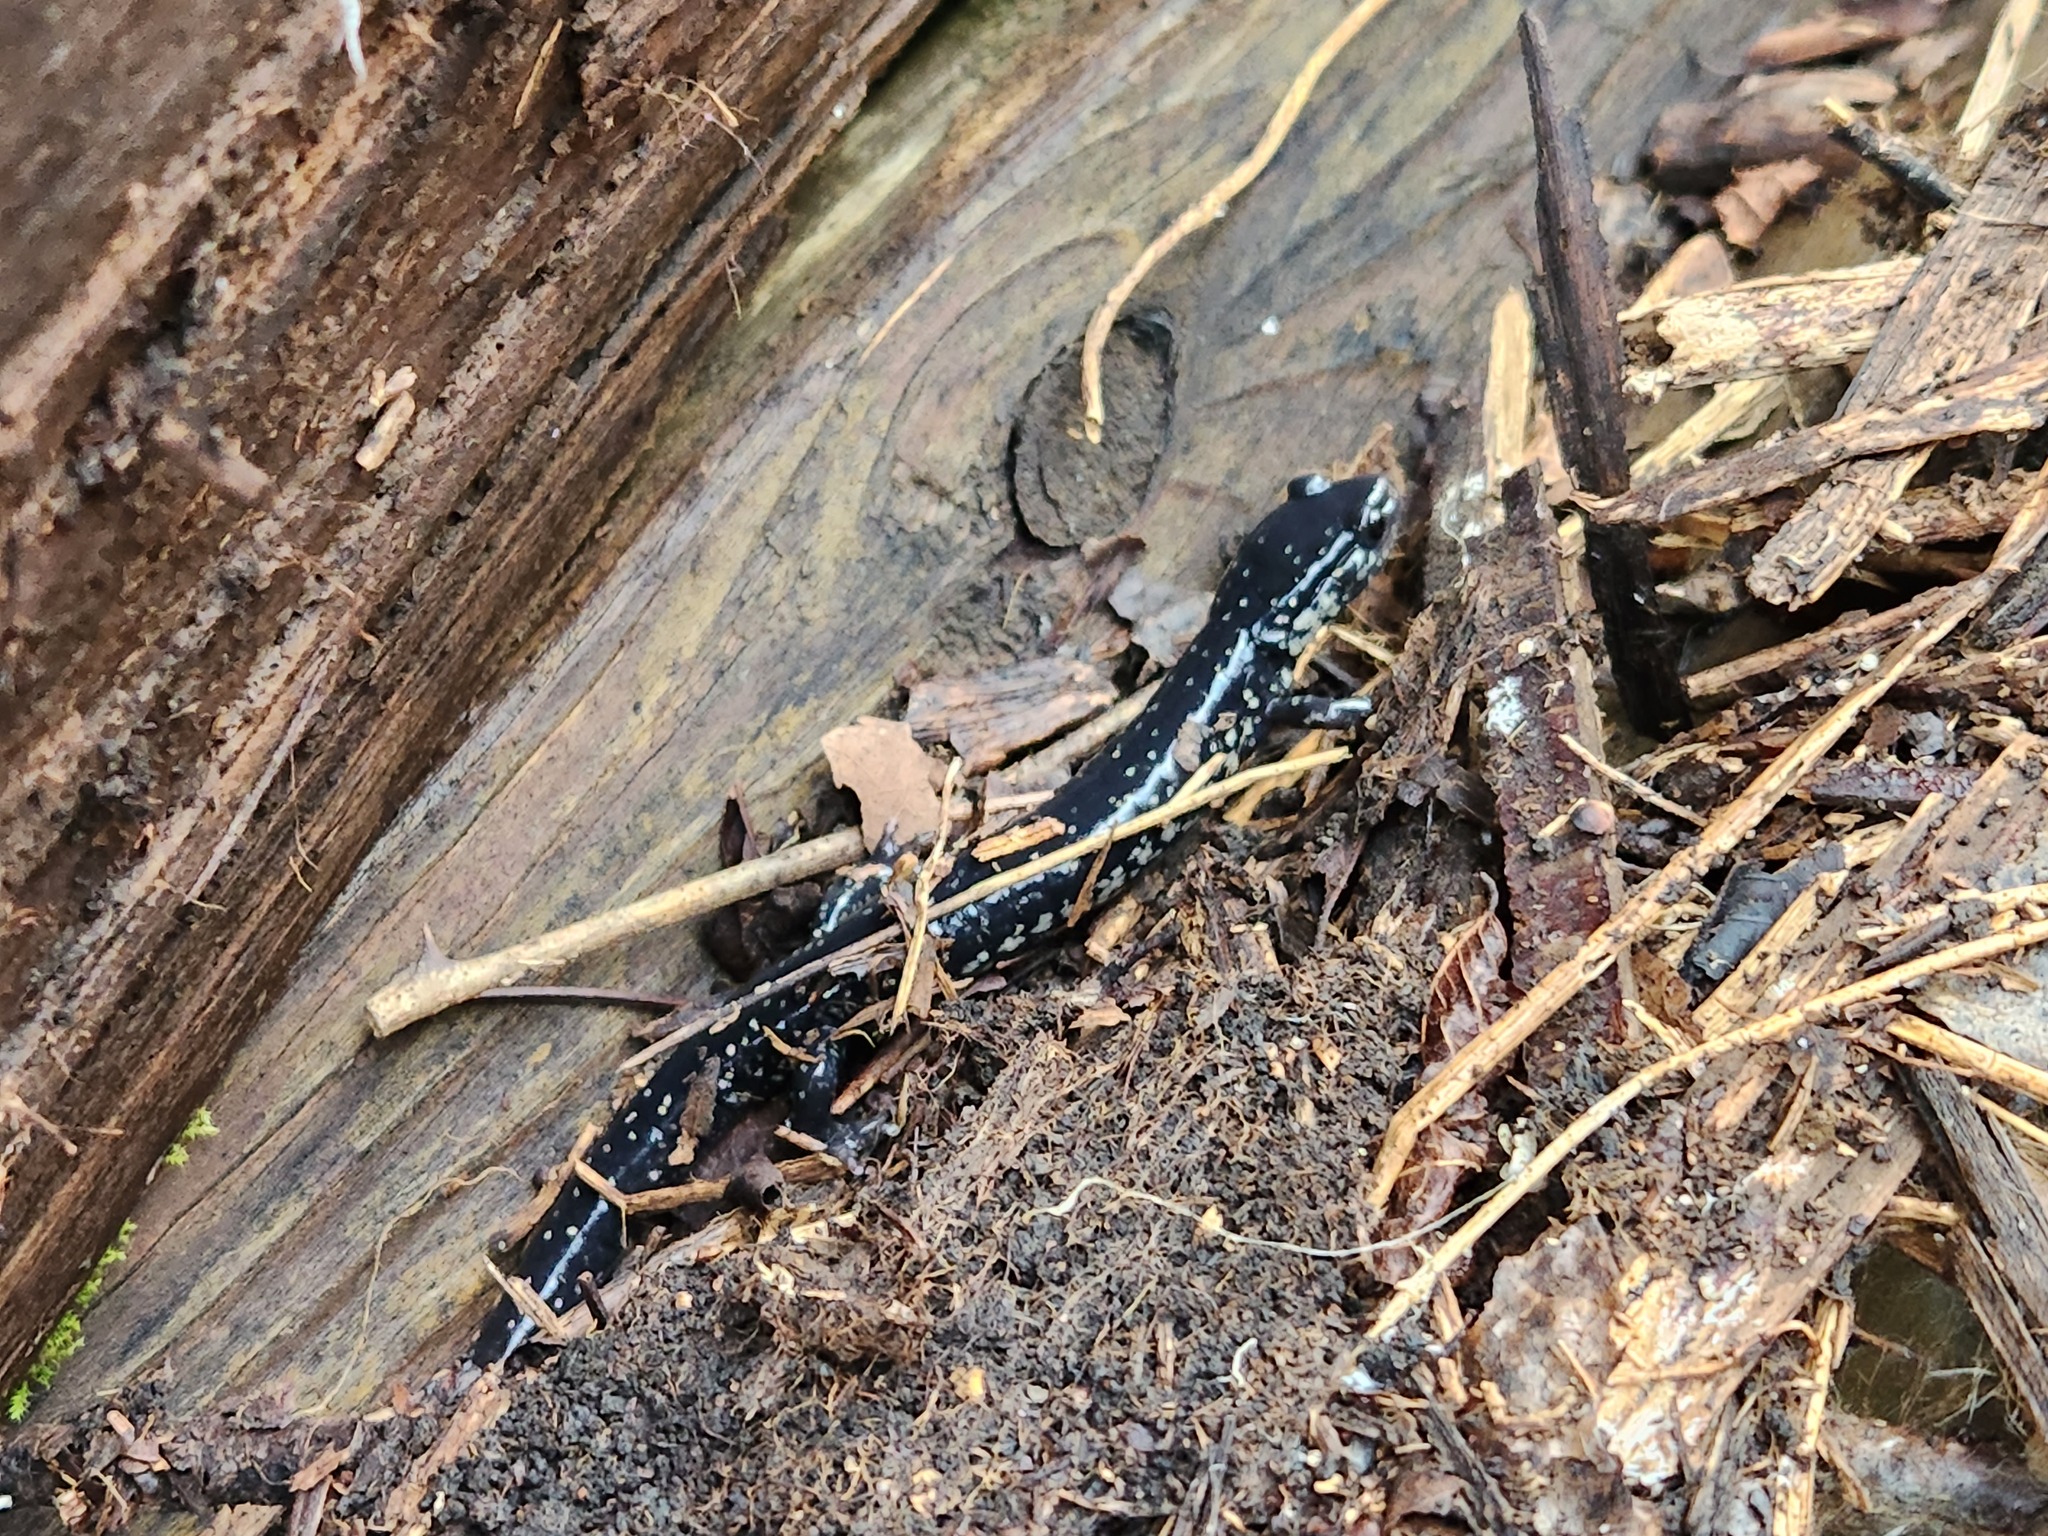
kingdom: Animalia
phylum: Chordata
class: Amphibia
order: Caudata
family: Plethodontidae
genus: Plethodon
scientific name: Plethodon glutinosus
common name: Northern slimy salamander
